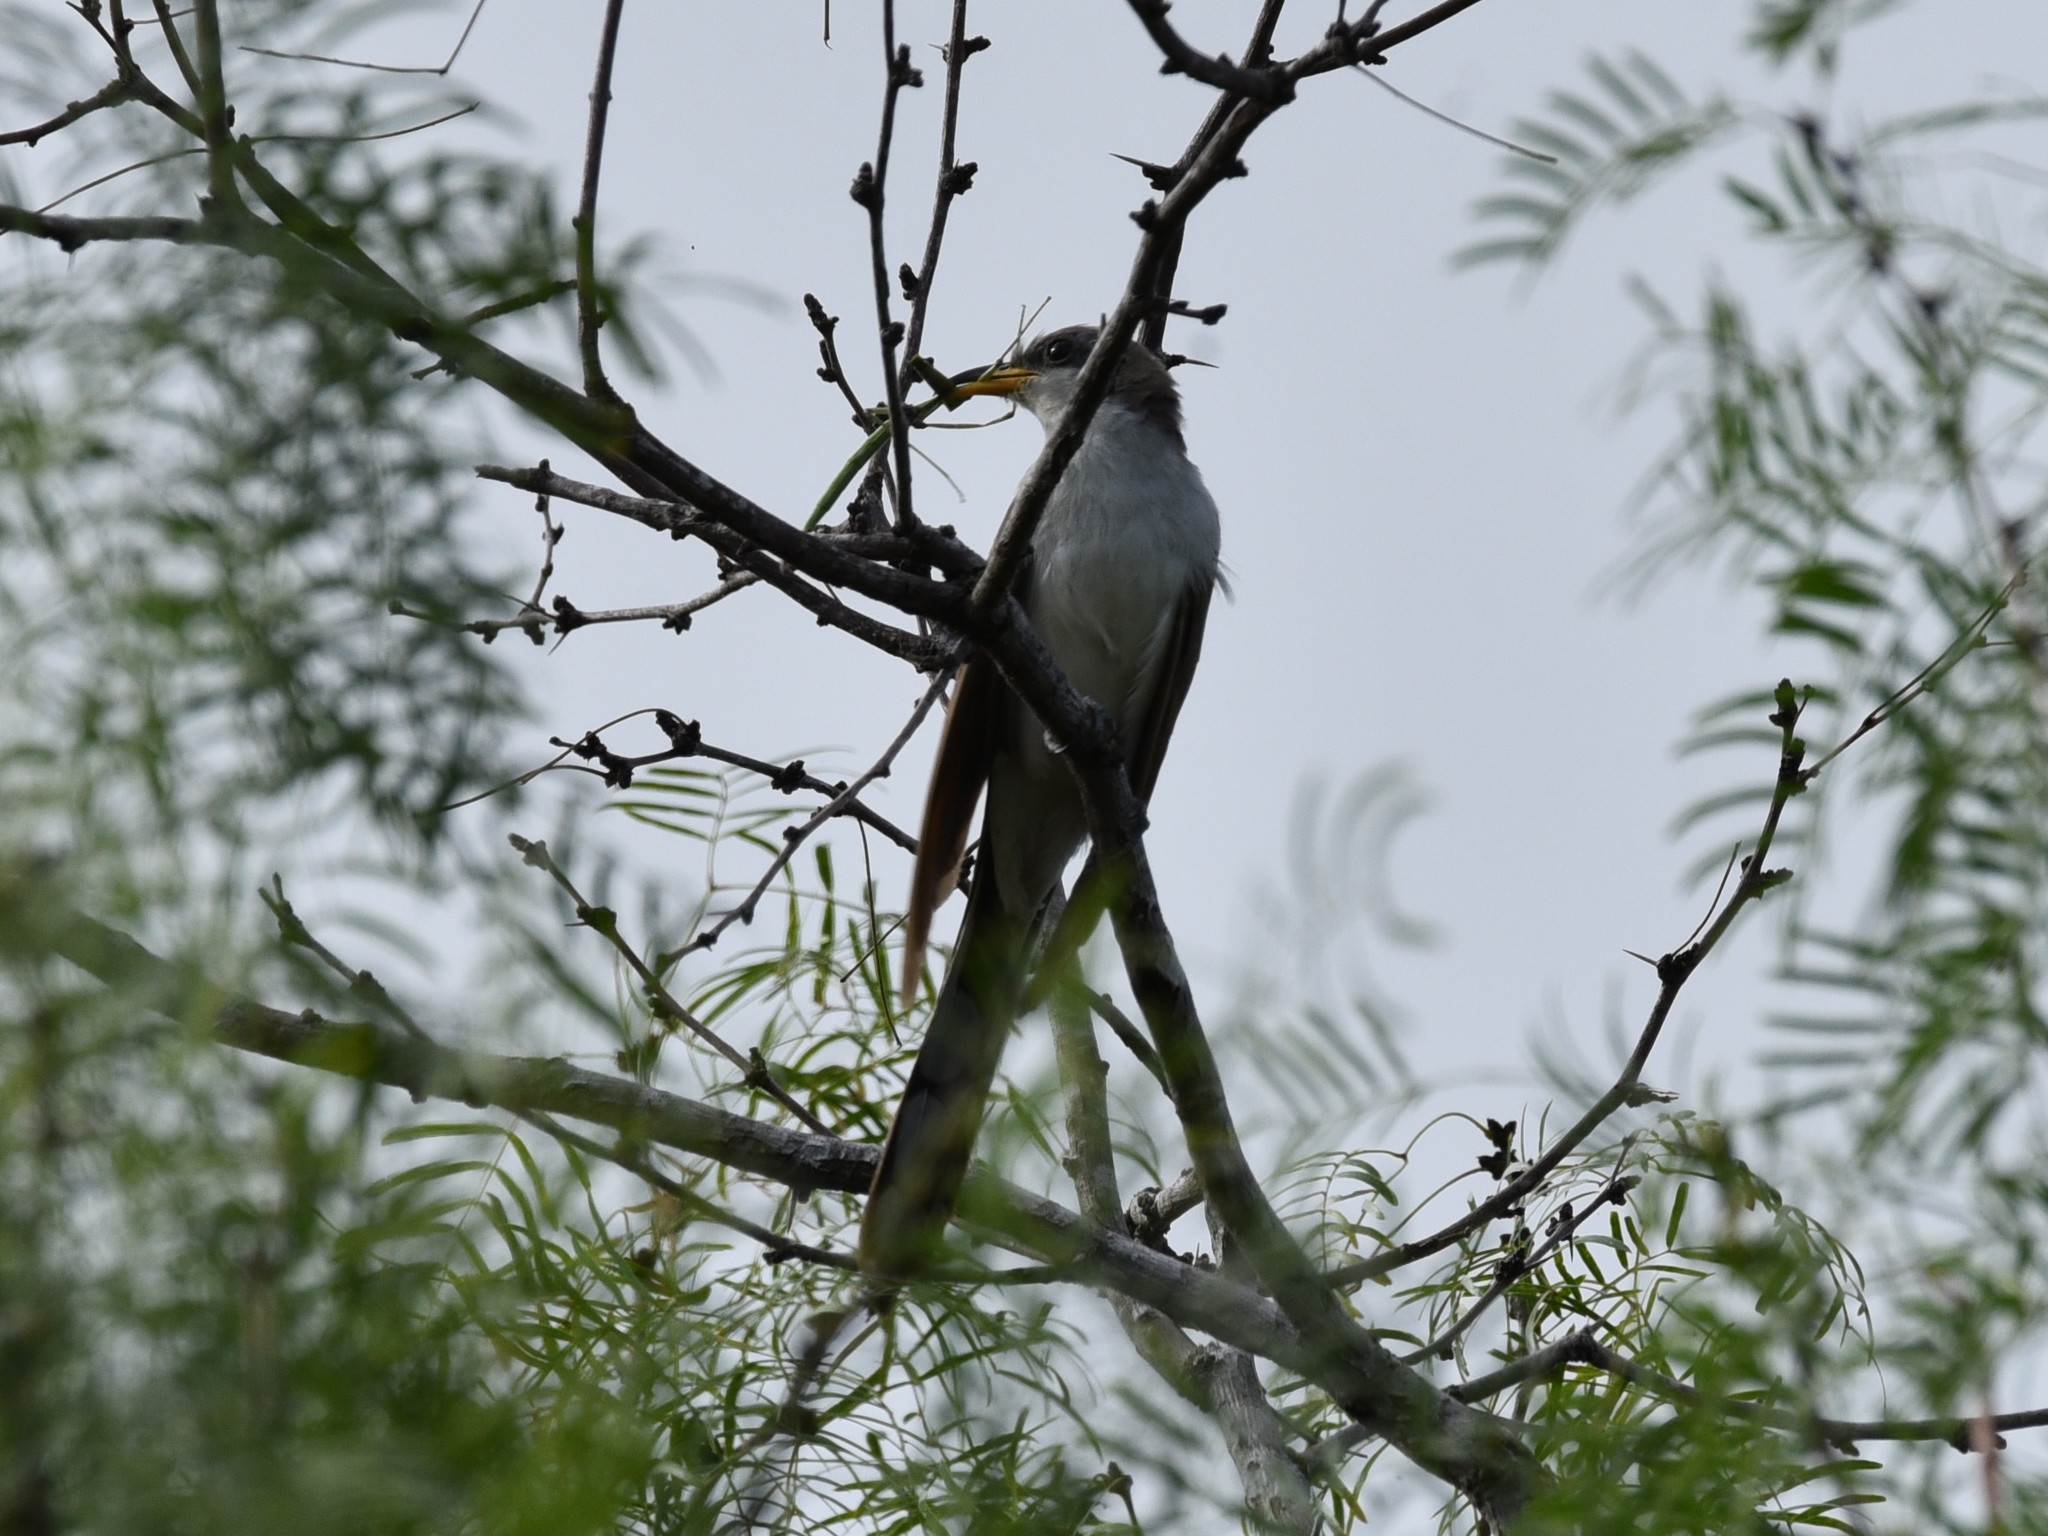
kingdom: Animalia
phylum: Chordata
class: Aves
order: Cuculiformes
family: Cuculidae
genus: Coccyzus
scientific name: Coccyzus americanus
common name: Yellow-billed cuckoo
